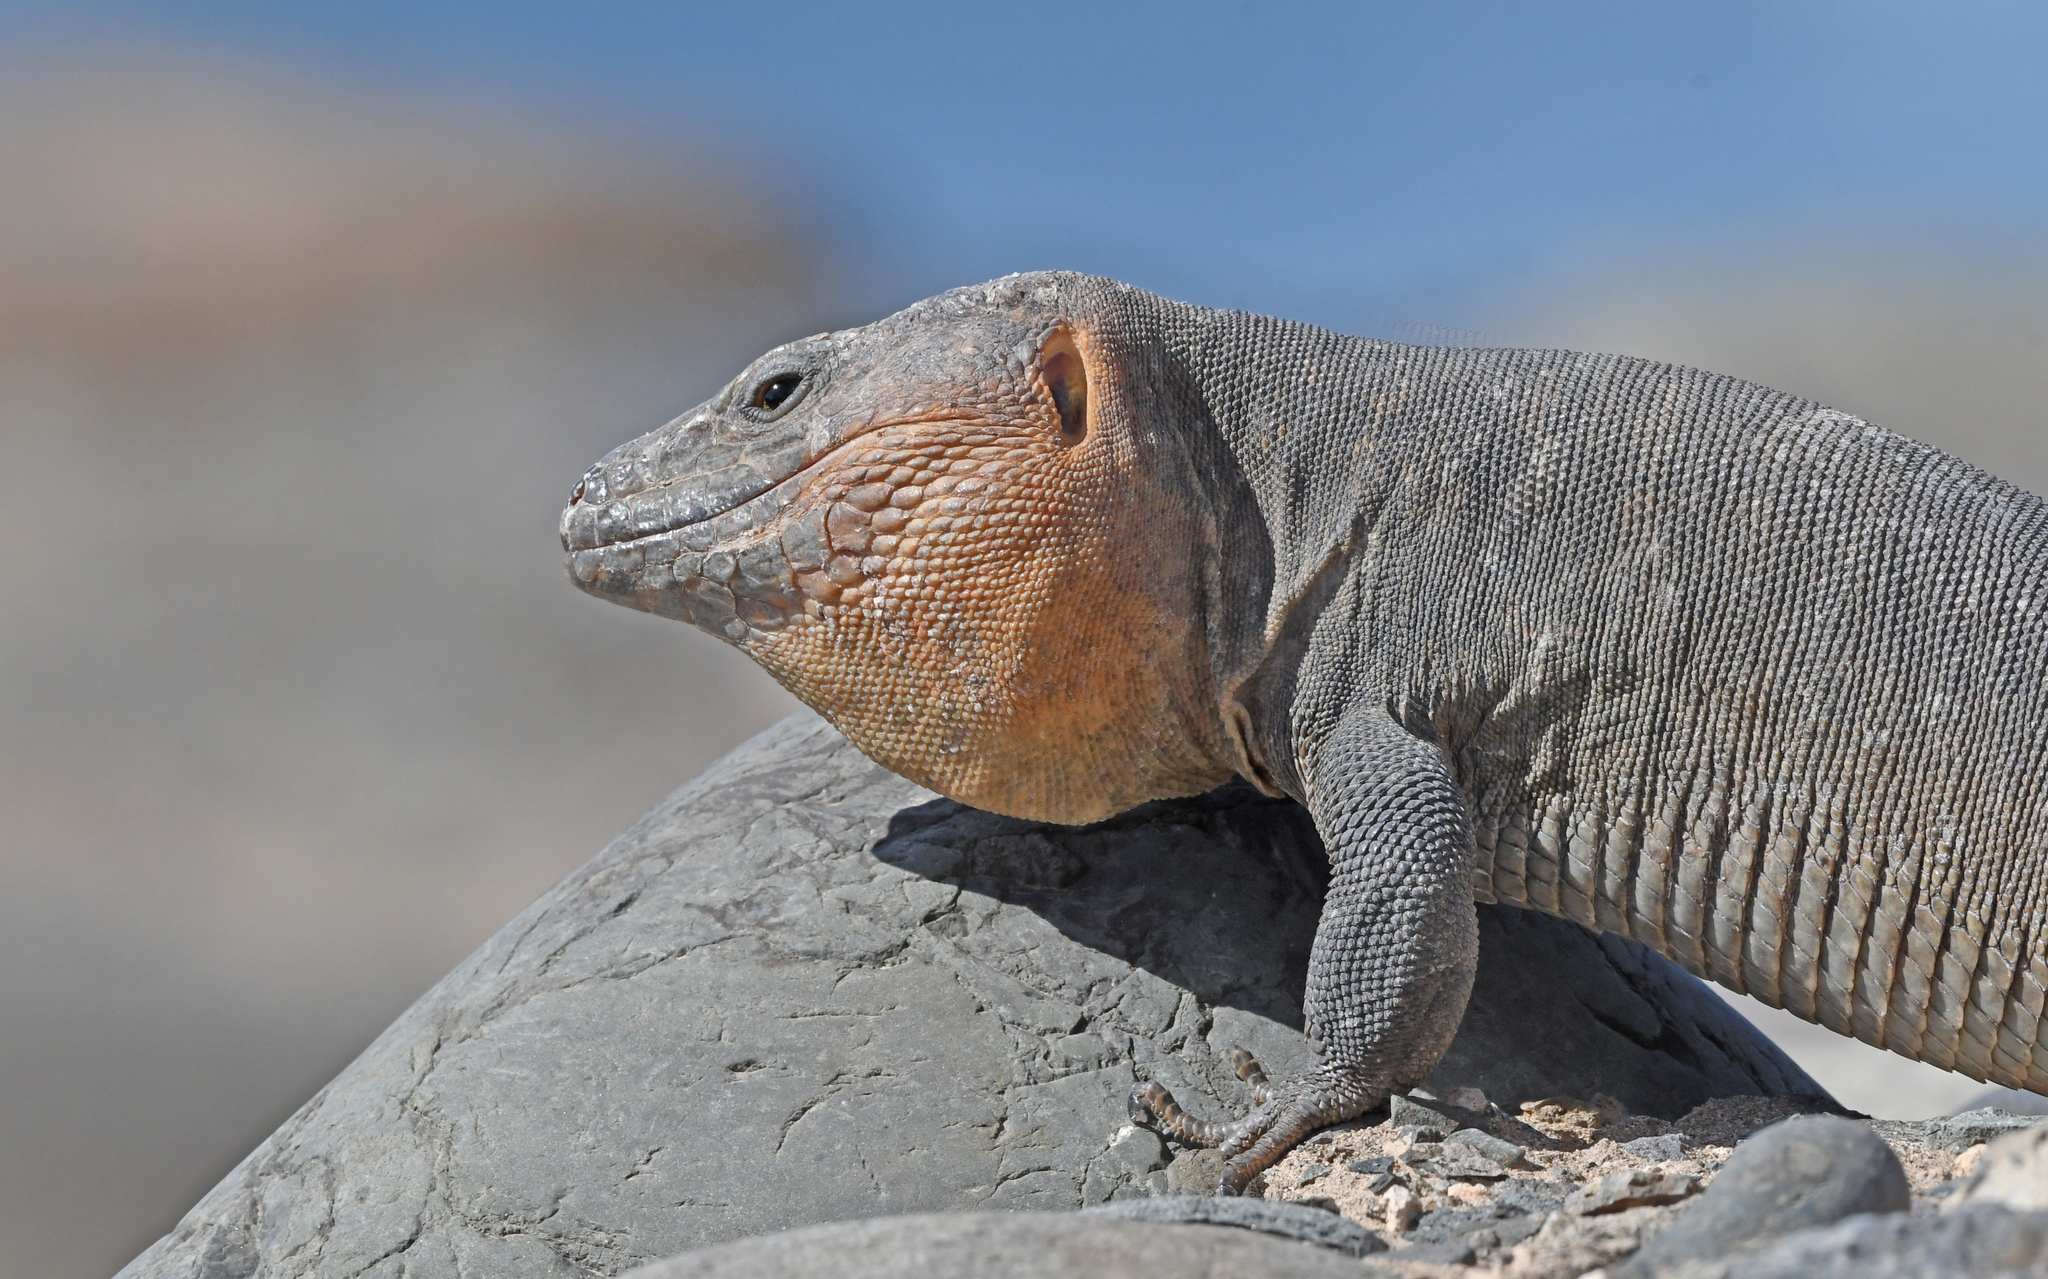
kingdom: Animalia
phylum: Chordata
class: Squamata
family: Lacertidae
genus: Gallotia
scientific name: Gallotia stehlini
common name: Gran canaria giant lizard
